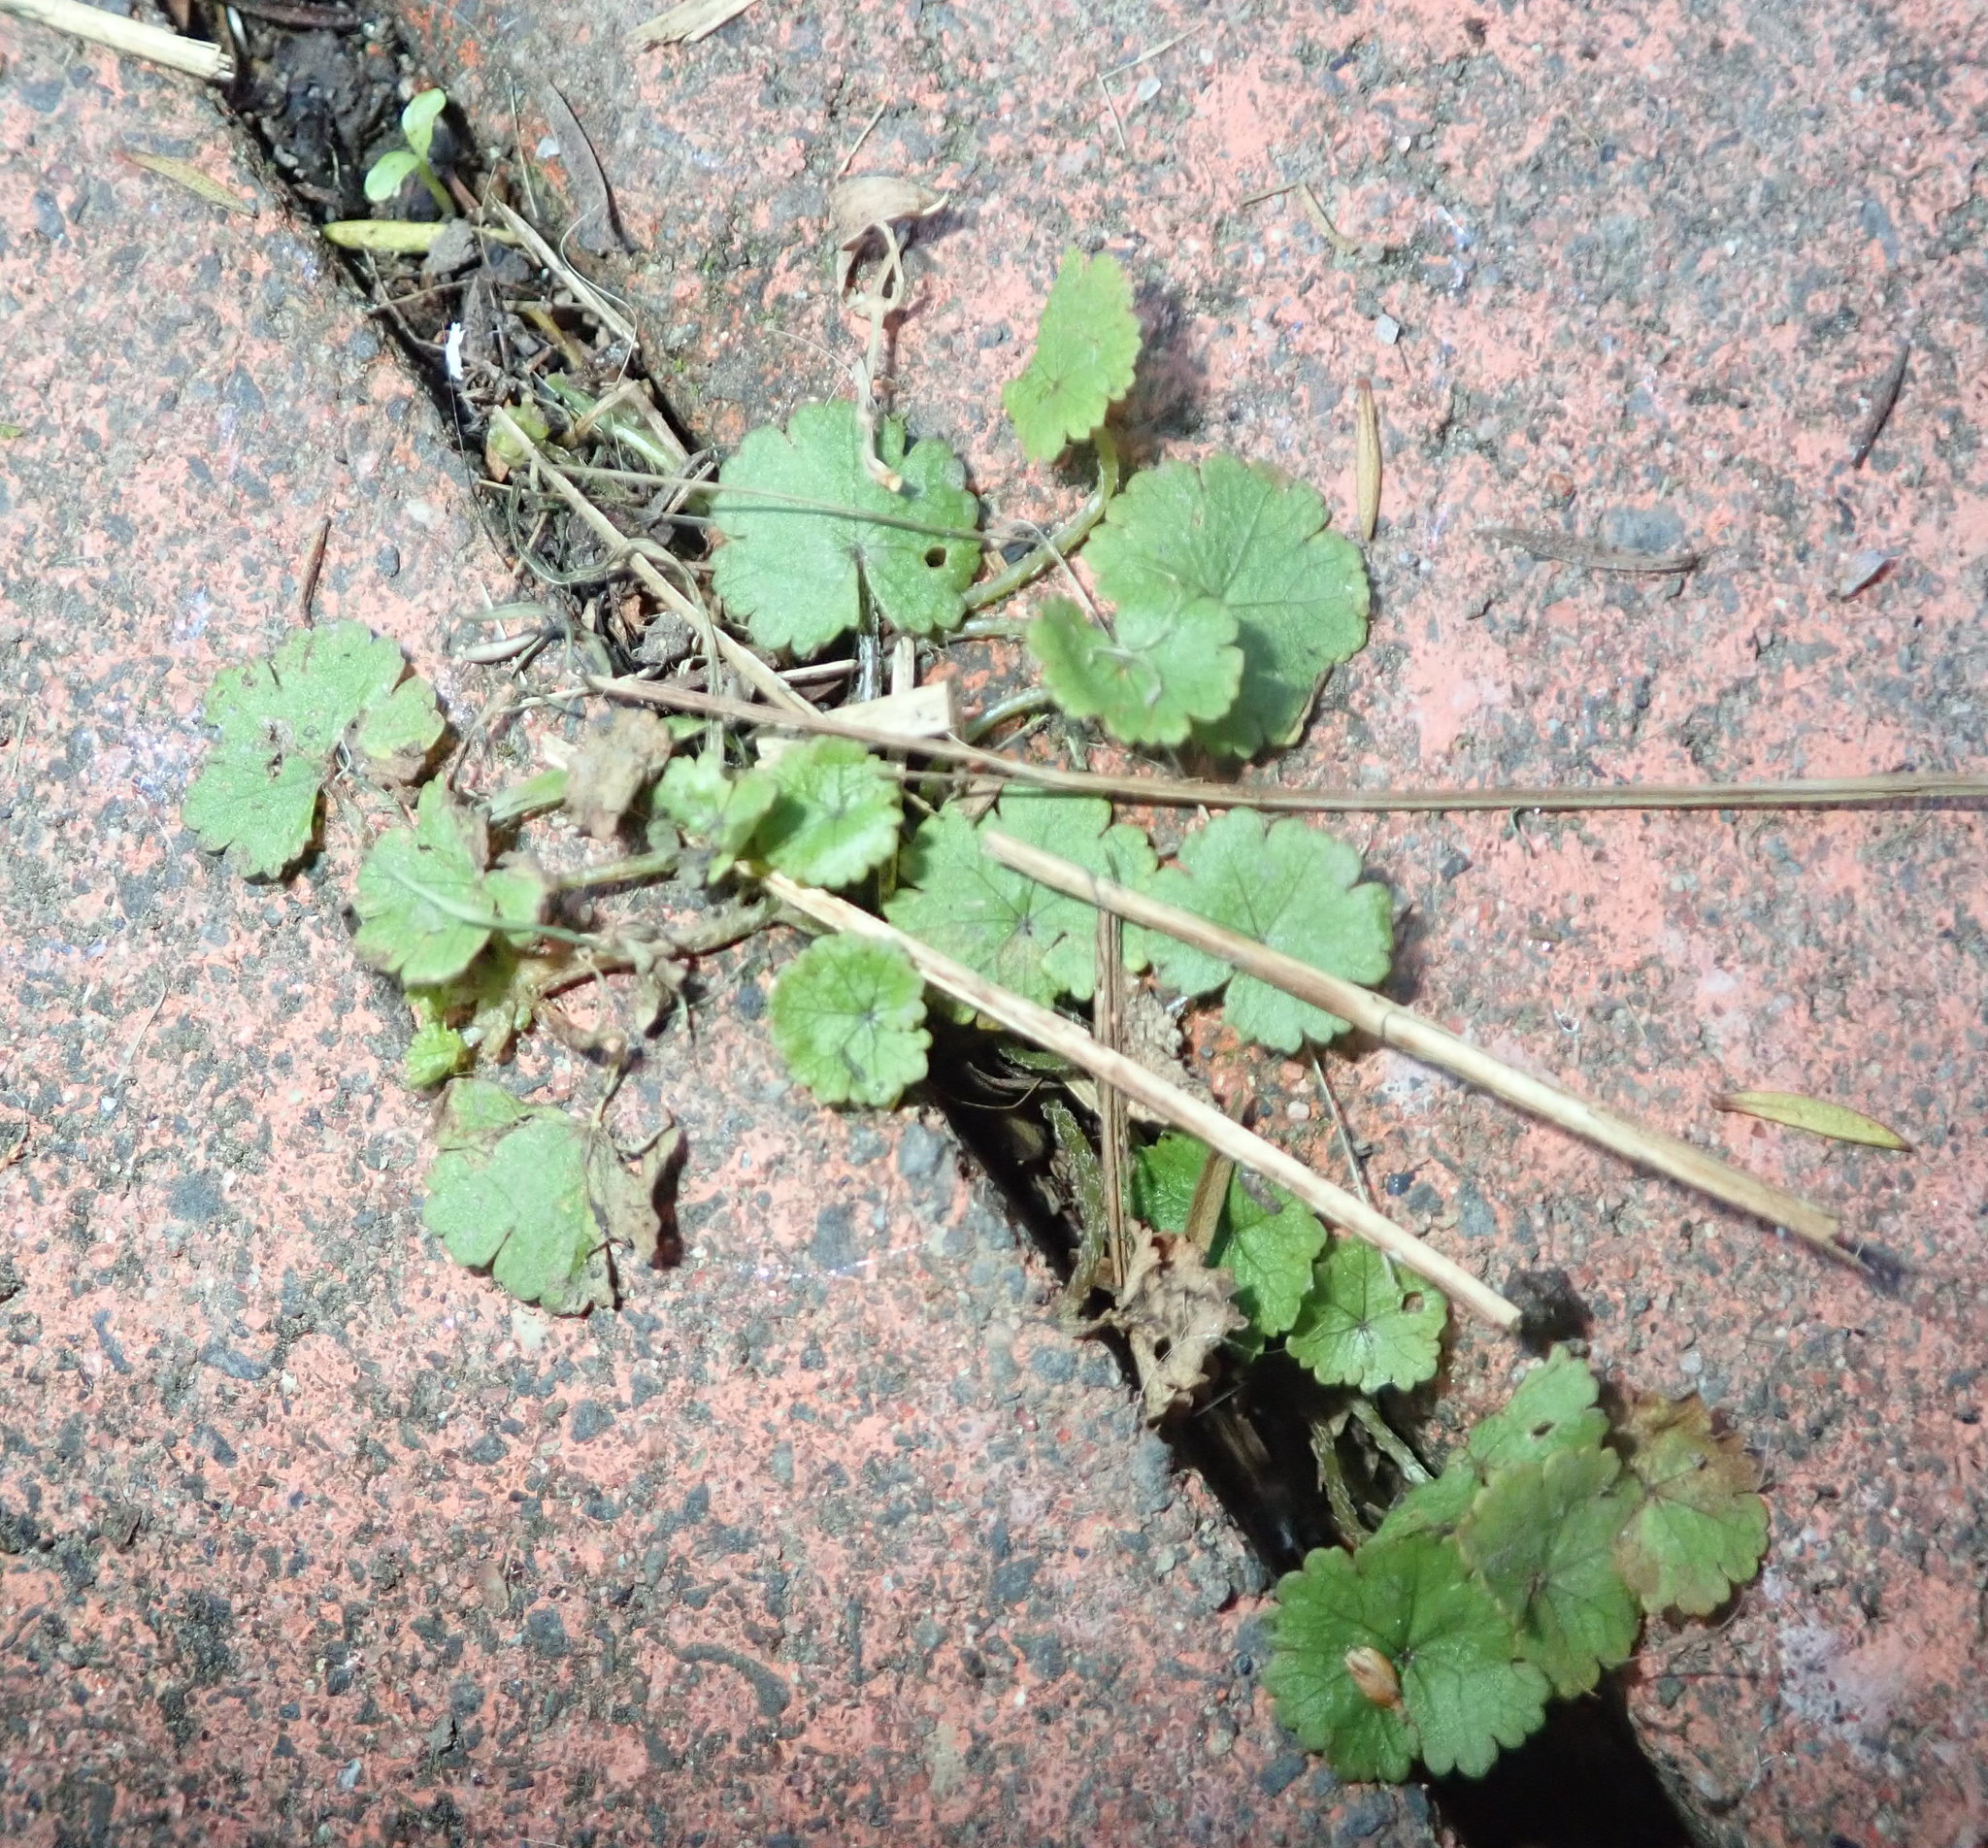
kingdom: Plantae
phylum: Tracheophyta
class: Magnoliopsida
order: Apiales
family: Araliaceae
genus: Hydrocotyle
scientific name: Hydrocotyle moschata
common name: Hairy pennywort
